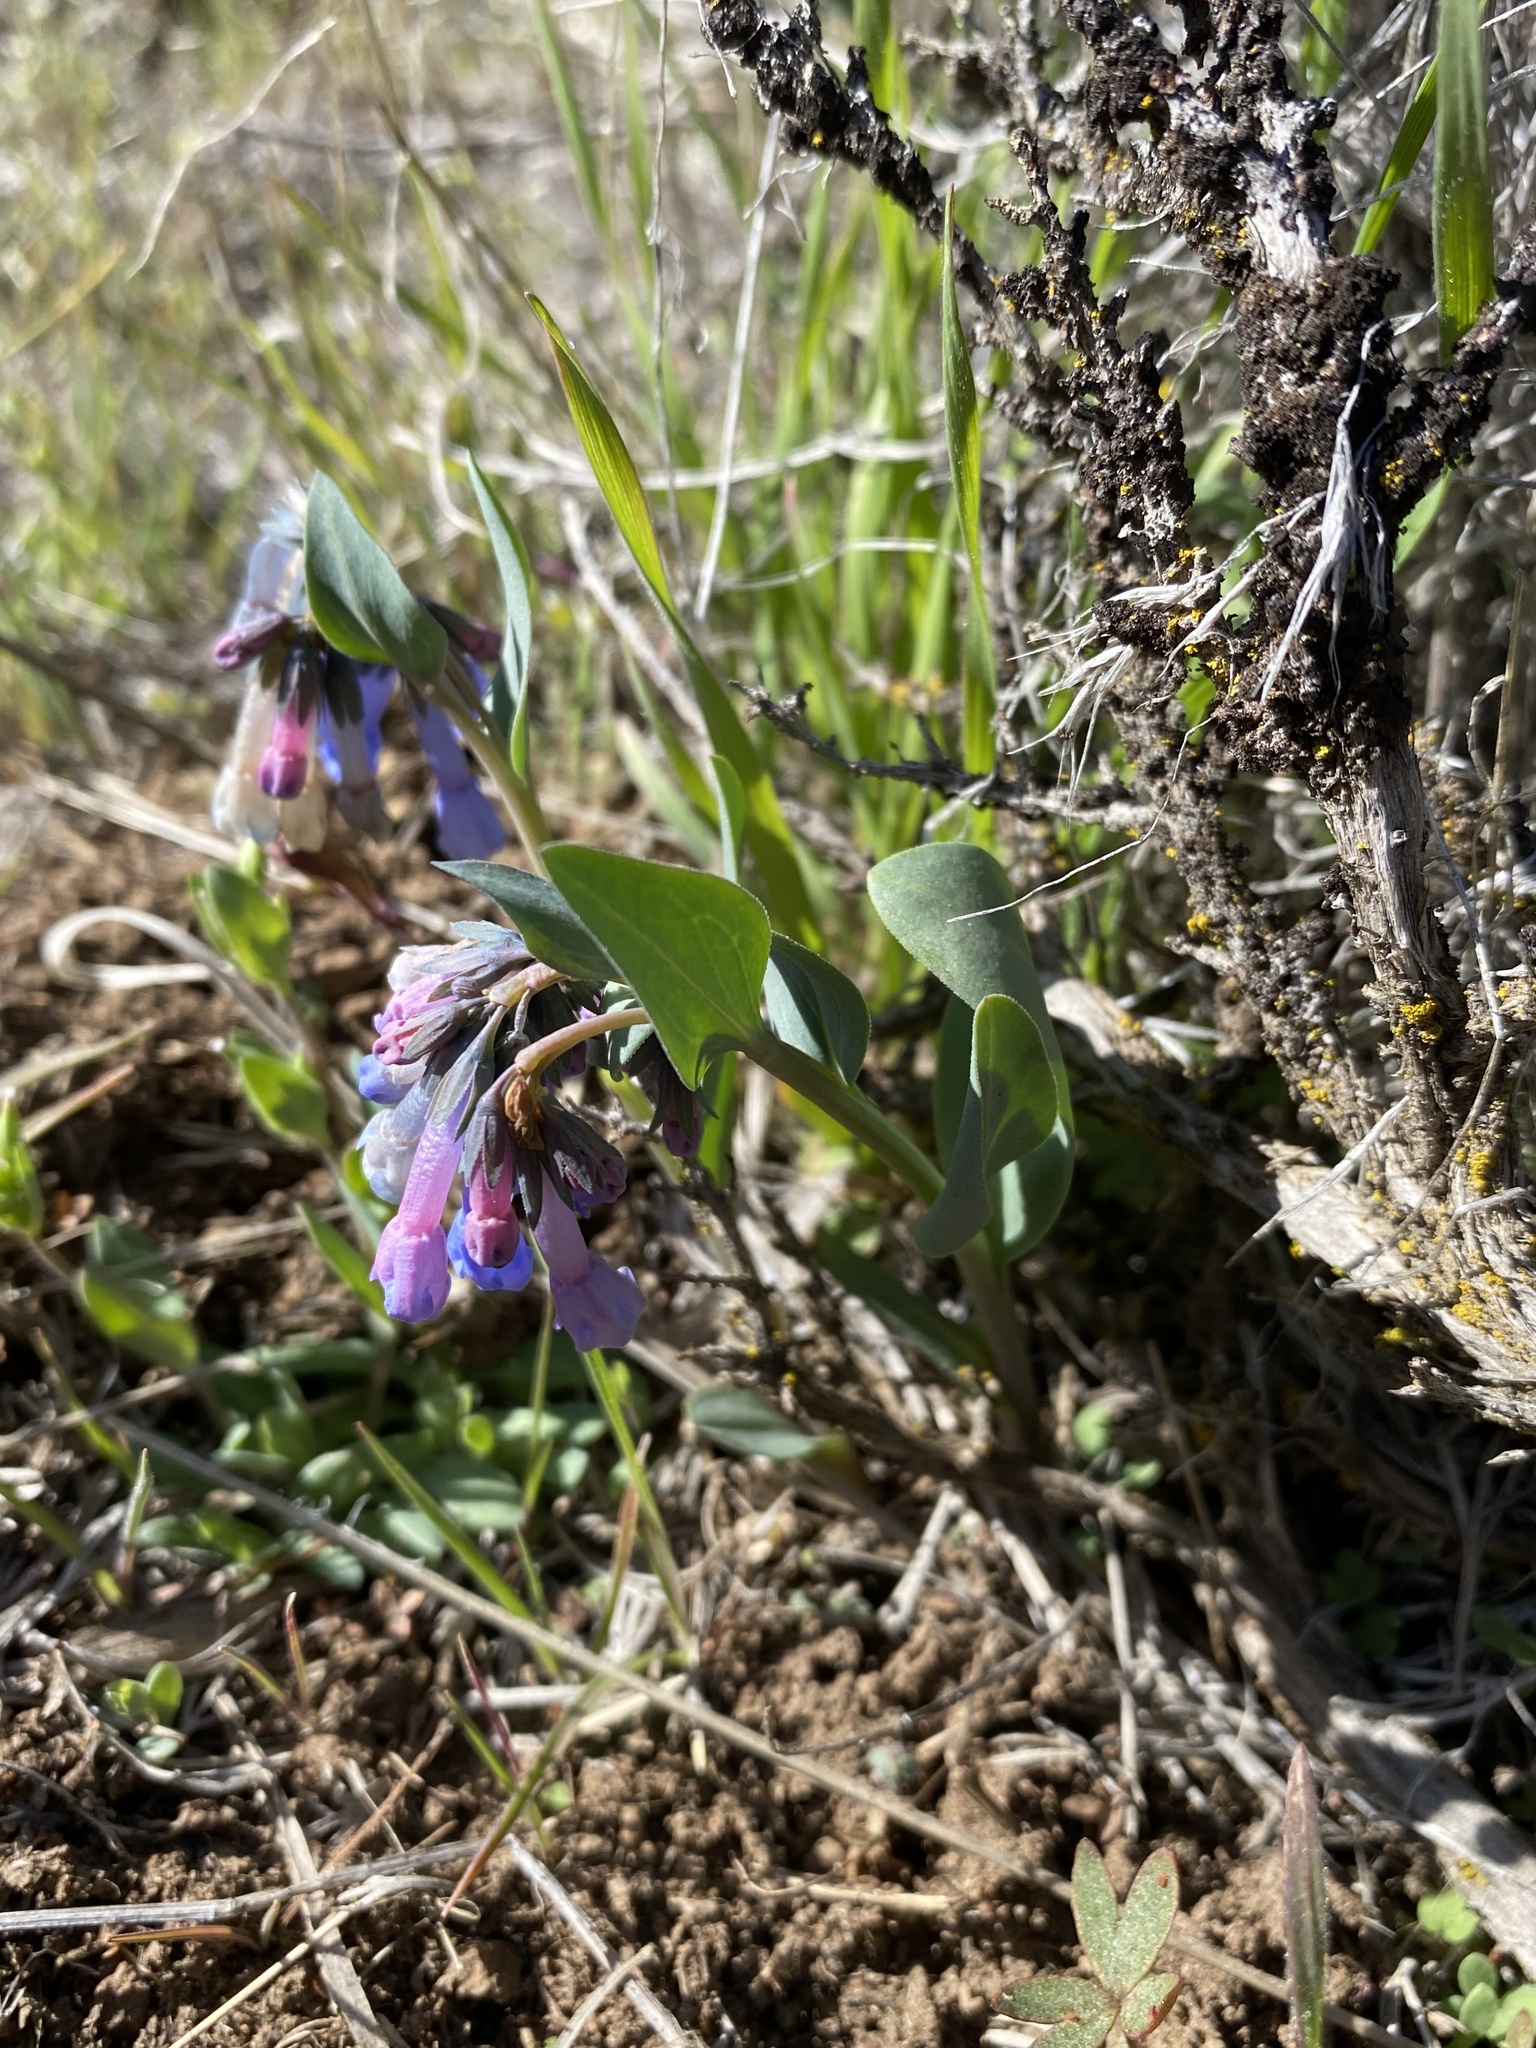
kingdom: Plantae
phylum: Tracheophyta
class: Magnoliopsida
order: Boraginales
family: Boraginaceae
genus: Mertensia
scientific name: Mertensia oblongifolia
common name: Sagebrush bluebells
